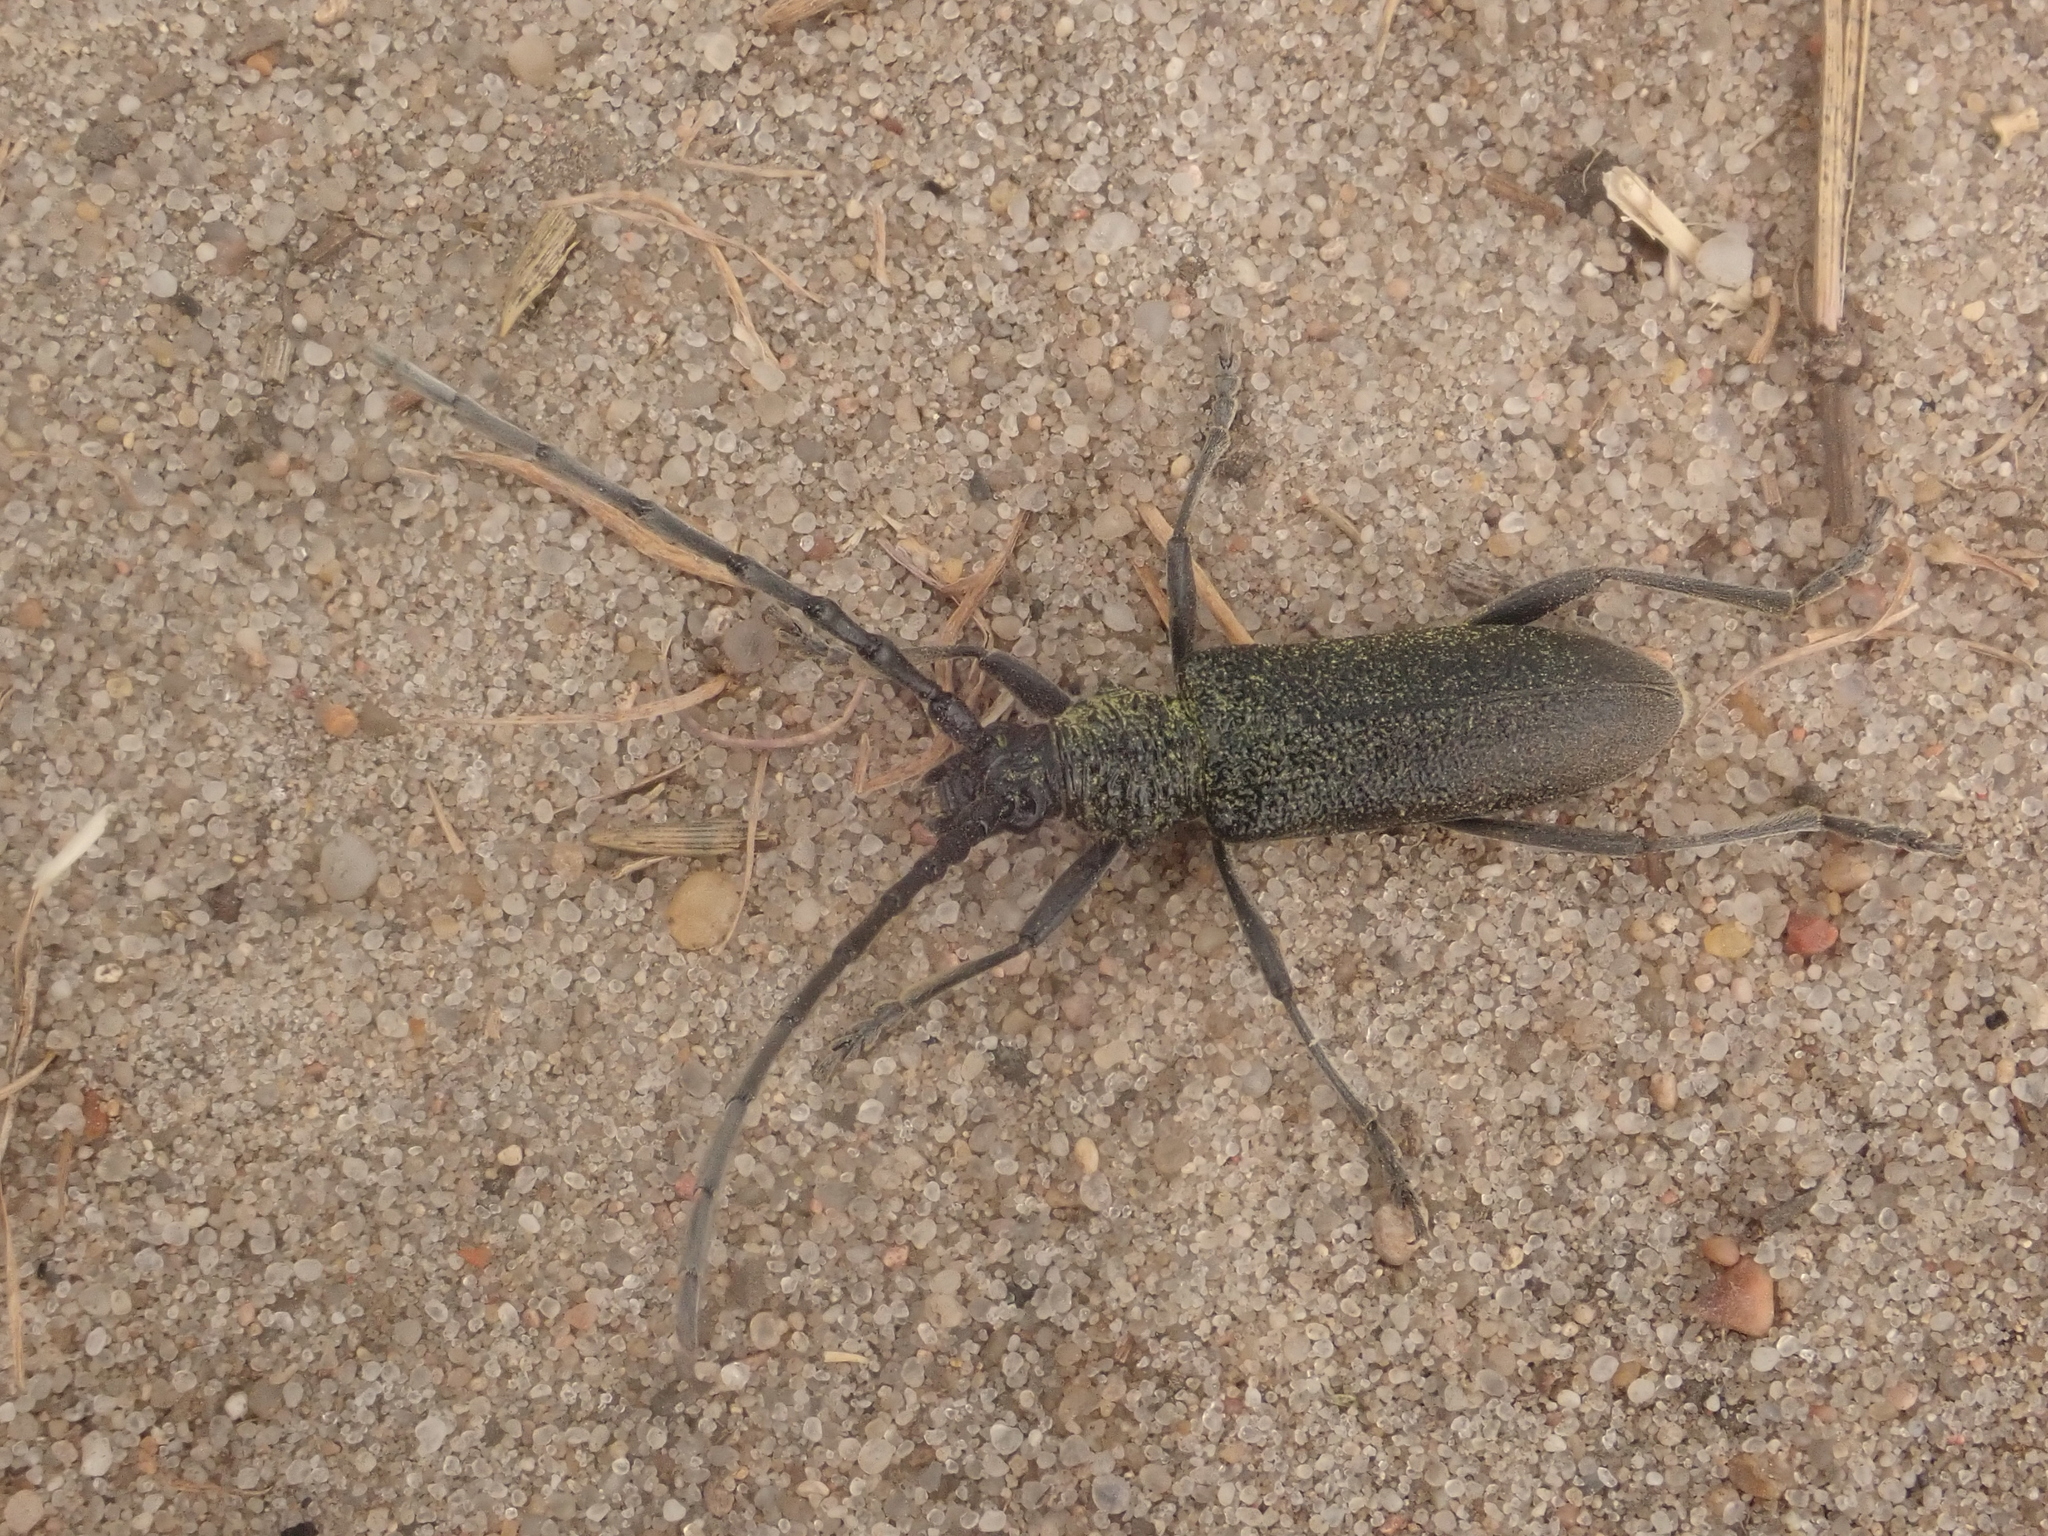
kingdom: Animalia
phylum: Arthropoda
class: Insecta
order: Coleoptera
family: Cerambycidae
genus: Cerambyx
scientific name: Cerambyx scopolii
